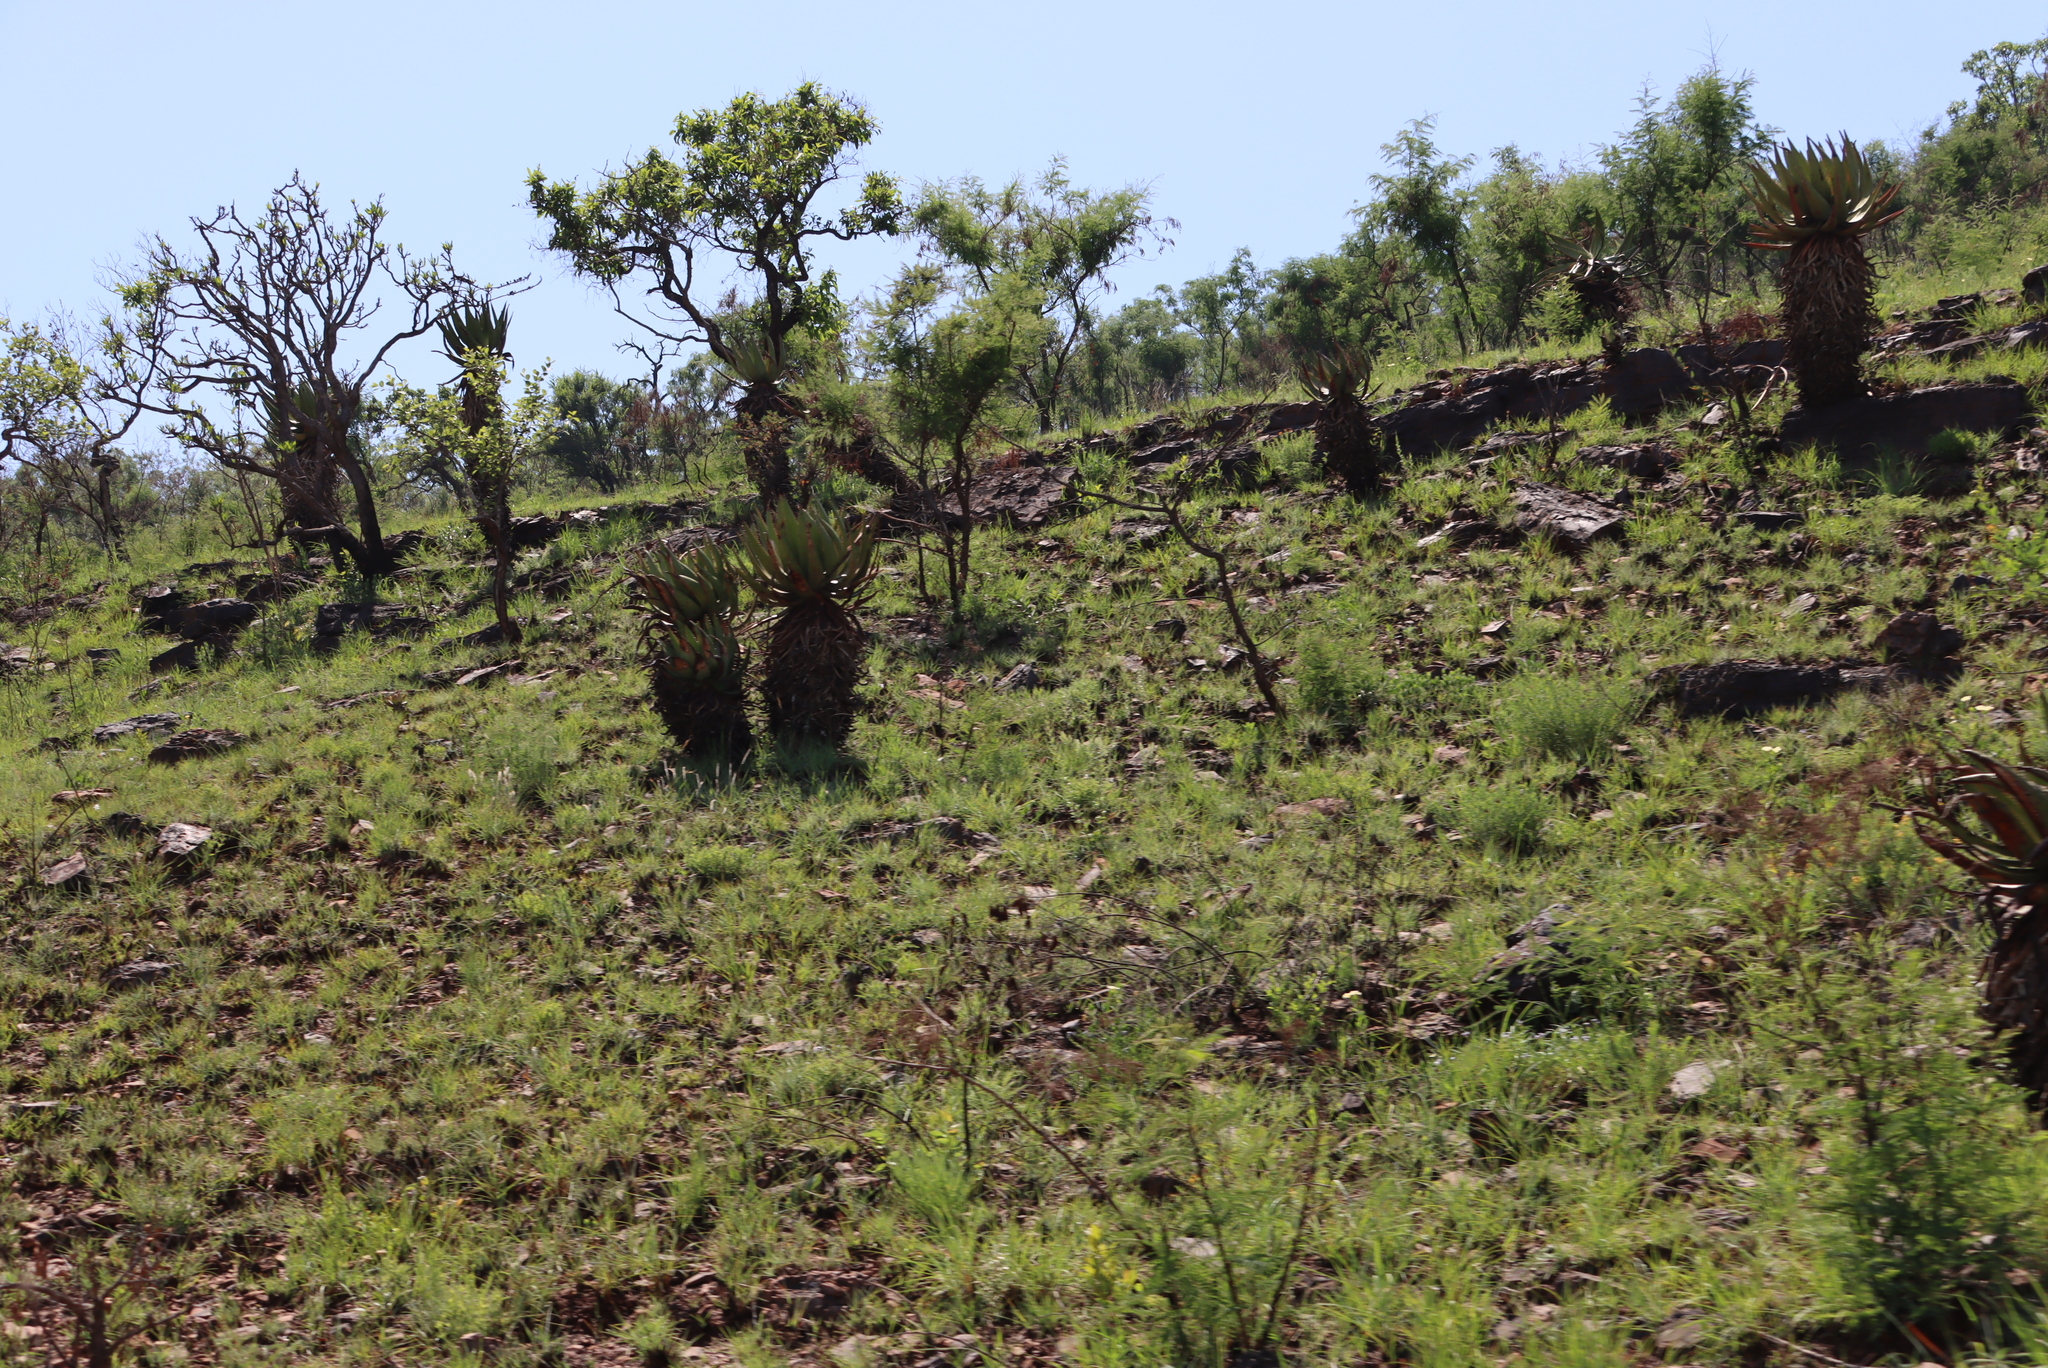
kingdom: Plantae
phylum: Tracheophyta
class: Magnoliopsida
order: Fabales
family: Fabaceae
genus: Vachellia
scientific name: Vachellia davyi
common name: Cork-bark thorn
